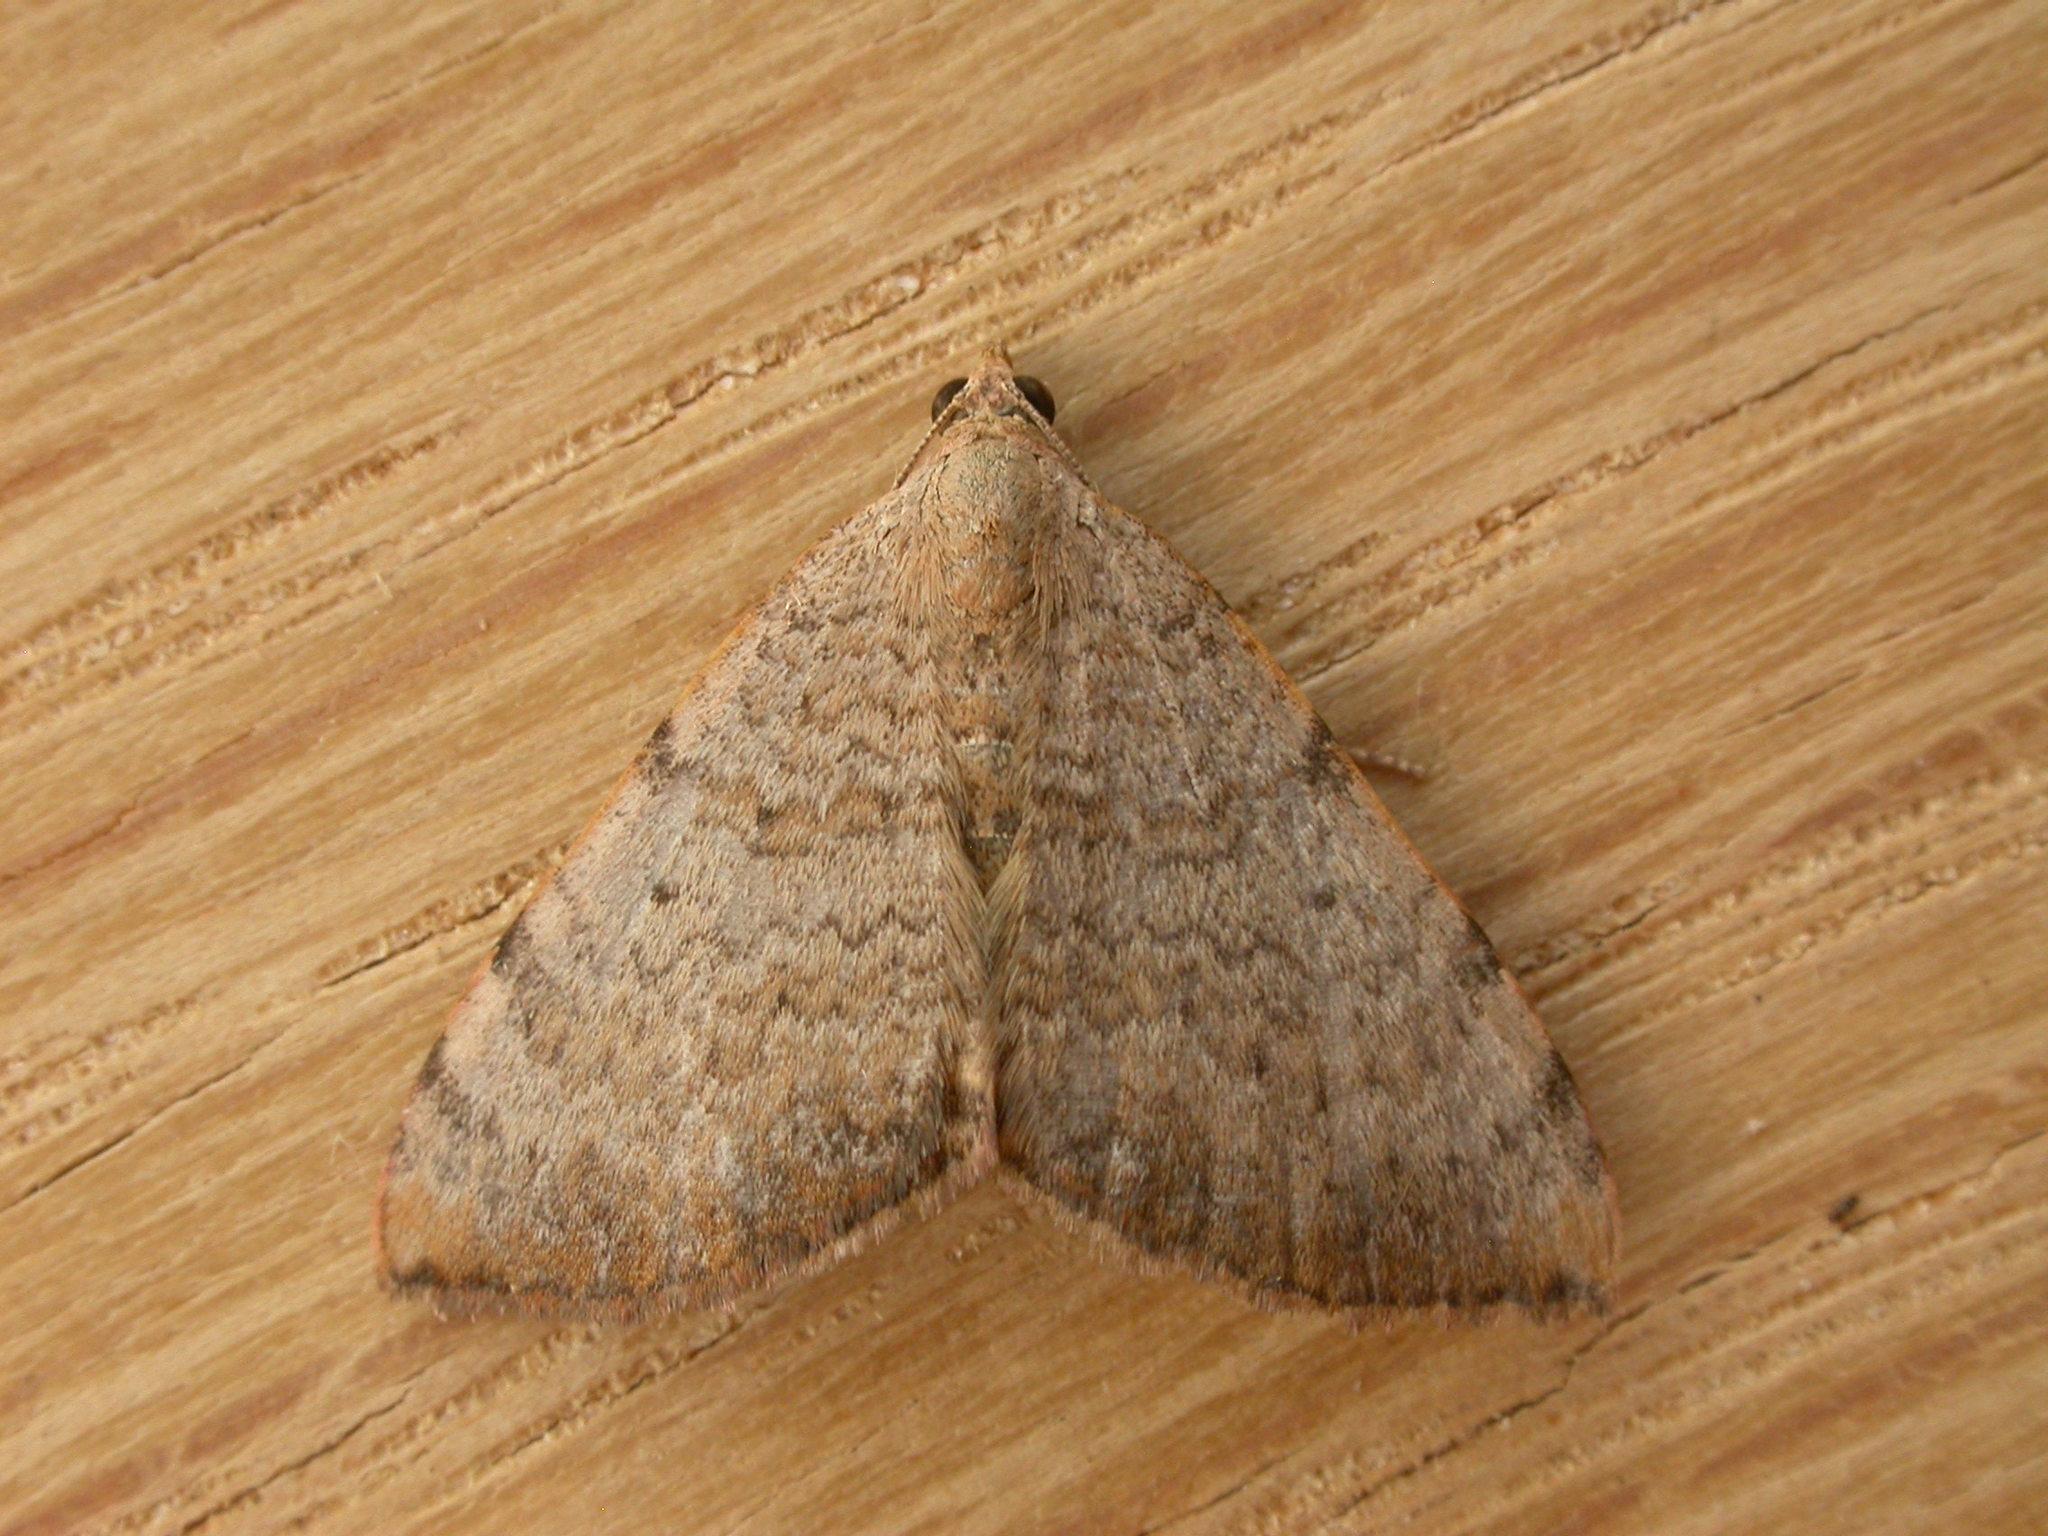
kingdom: Animalia
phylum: Arthropoda
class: Insecta
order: Lepidoptera
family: Geometridae
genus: Chrysolarentia
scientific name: Chrysolarentia mecynata
